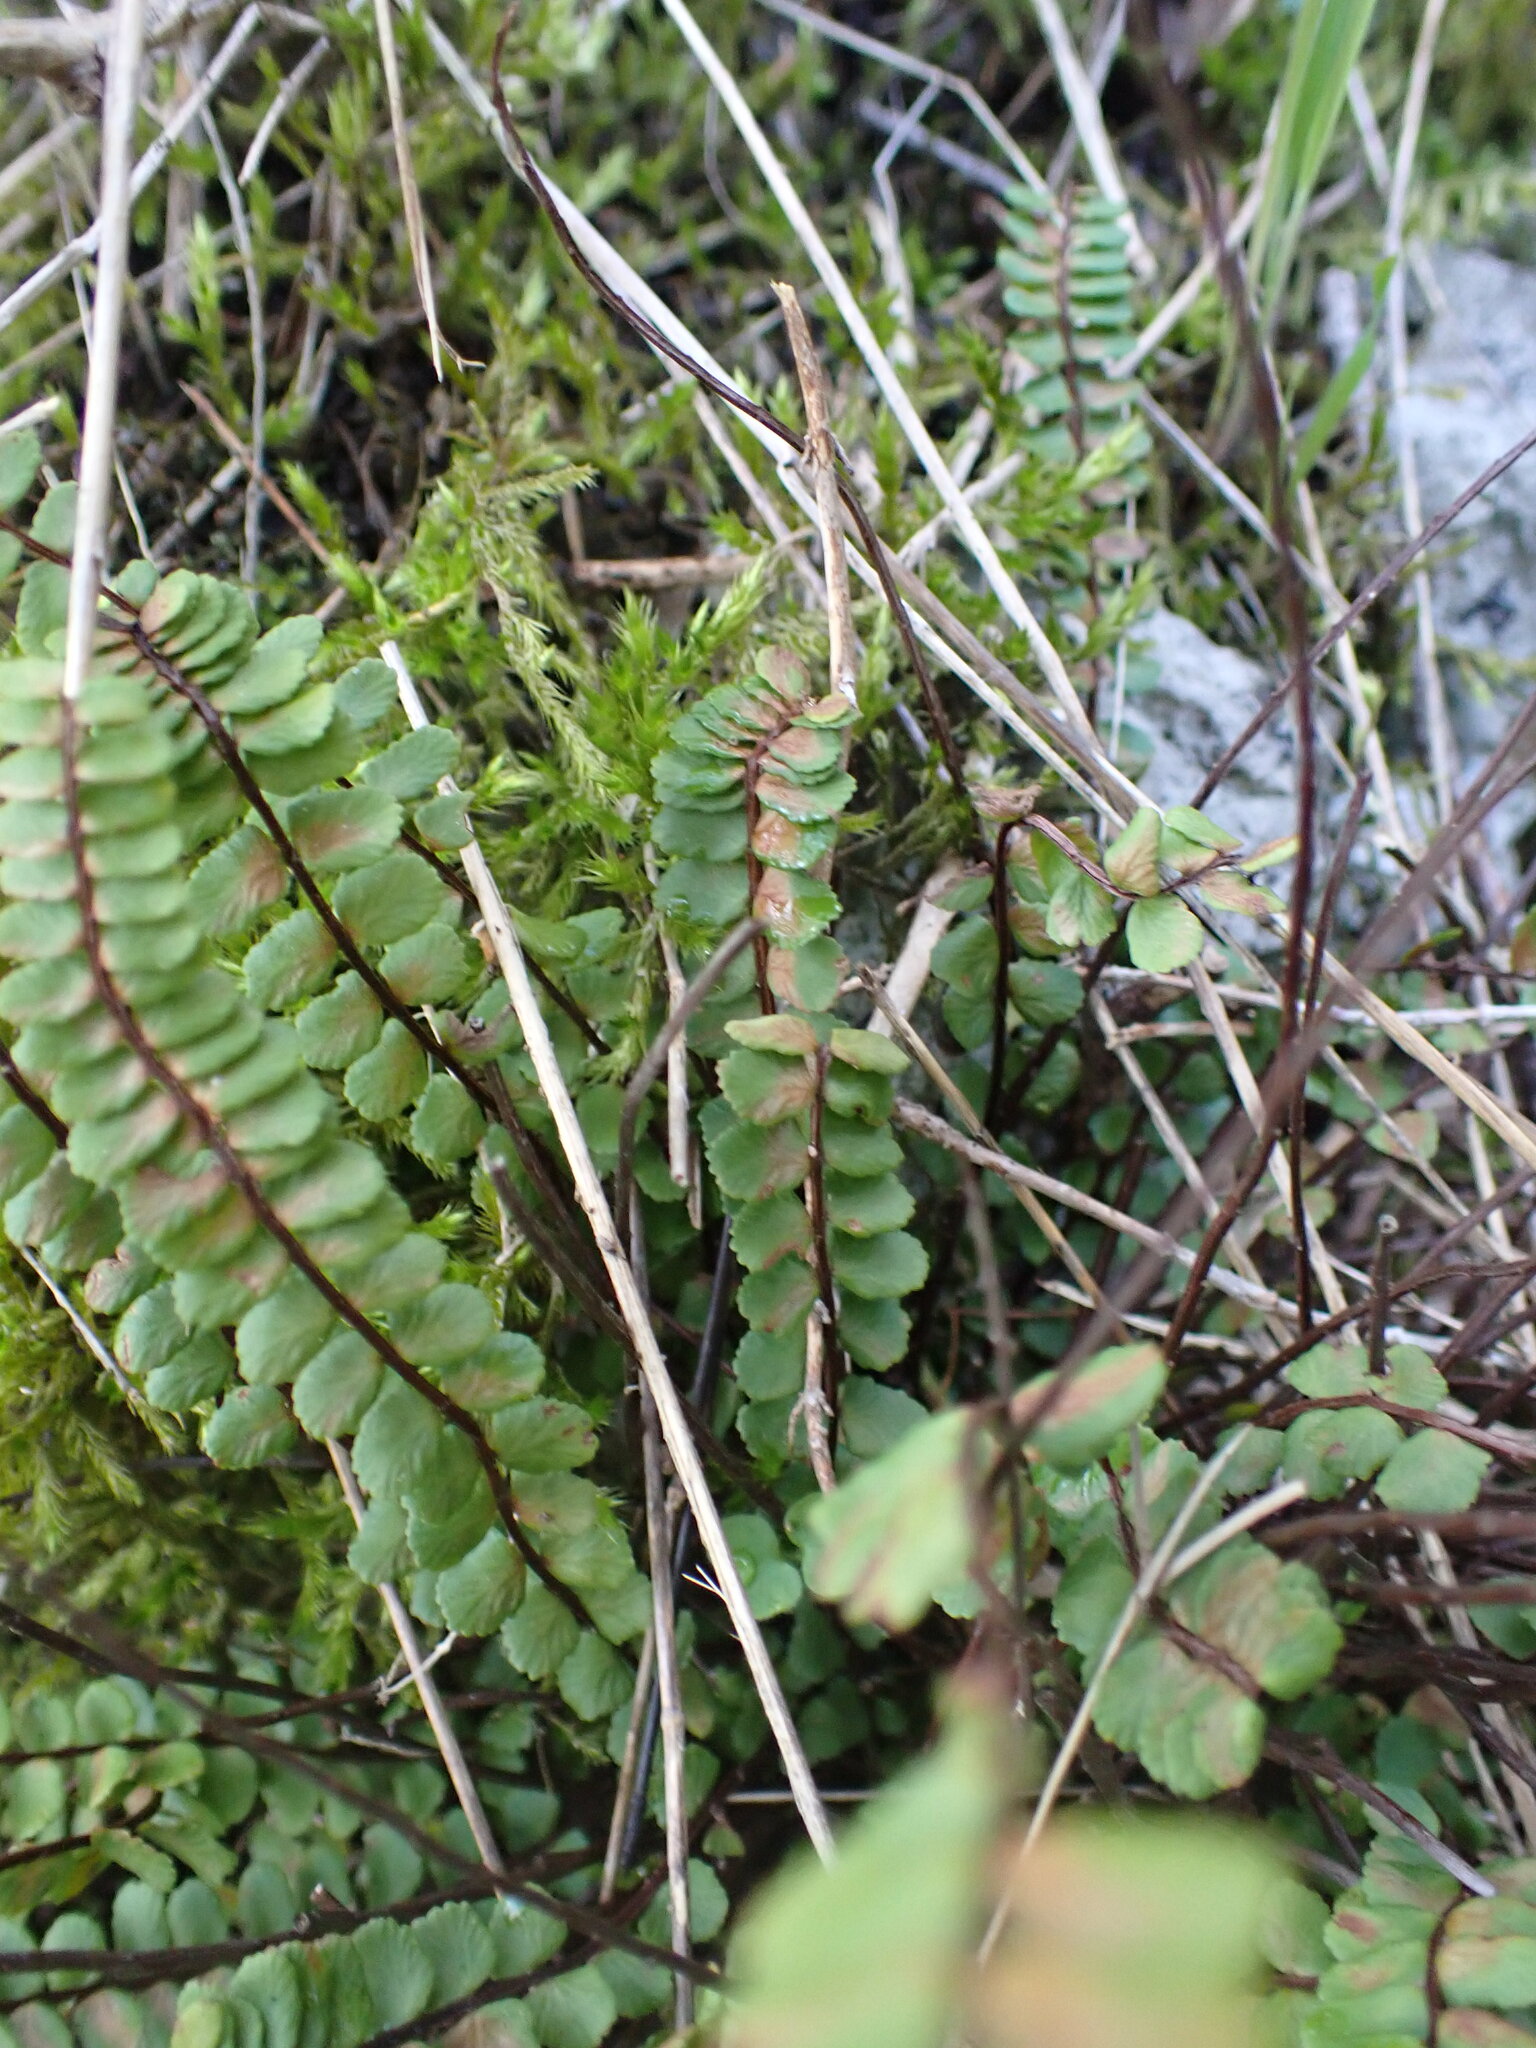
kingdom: Plantae
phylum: Tracheophyta
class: Polypodiopsida
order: Polypodiales
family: Aspleniaceae
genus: Asplenium
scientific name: Asplenium trichomanes
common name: Maidenhair spleenwort
